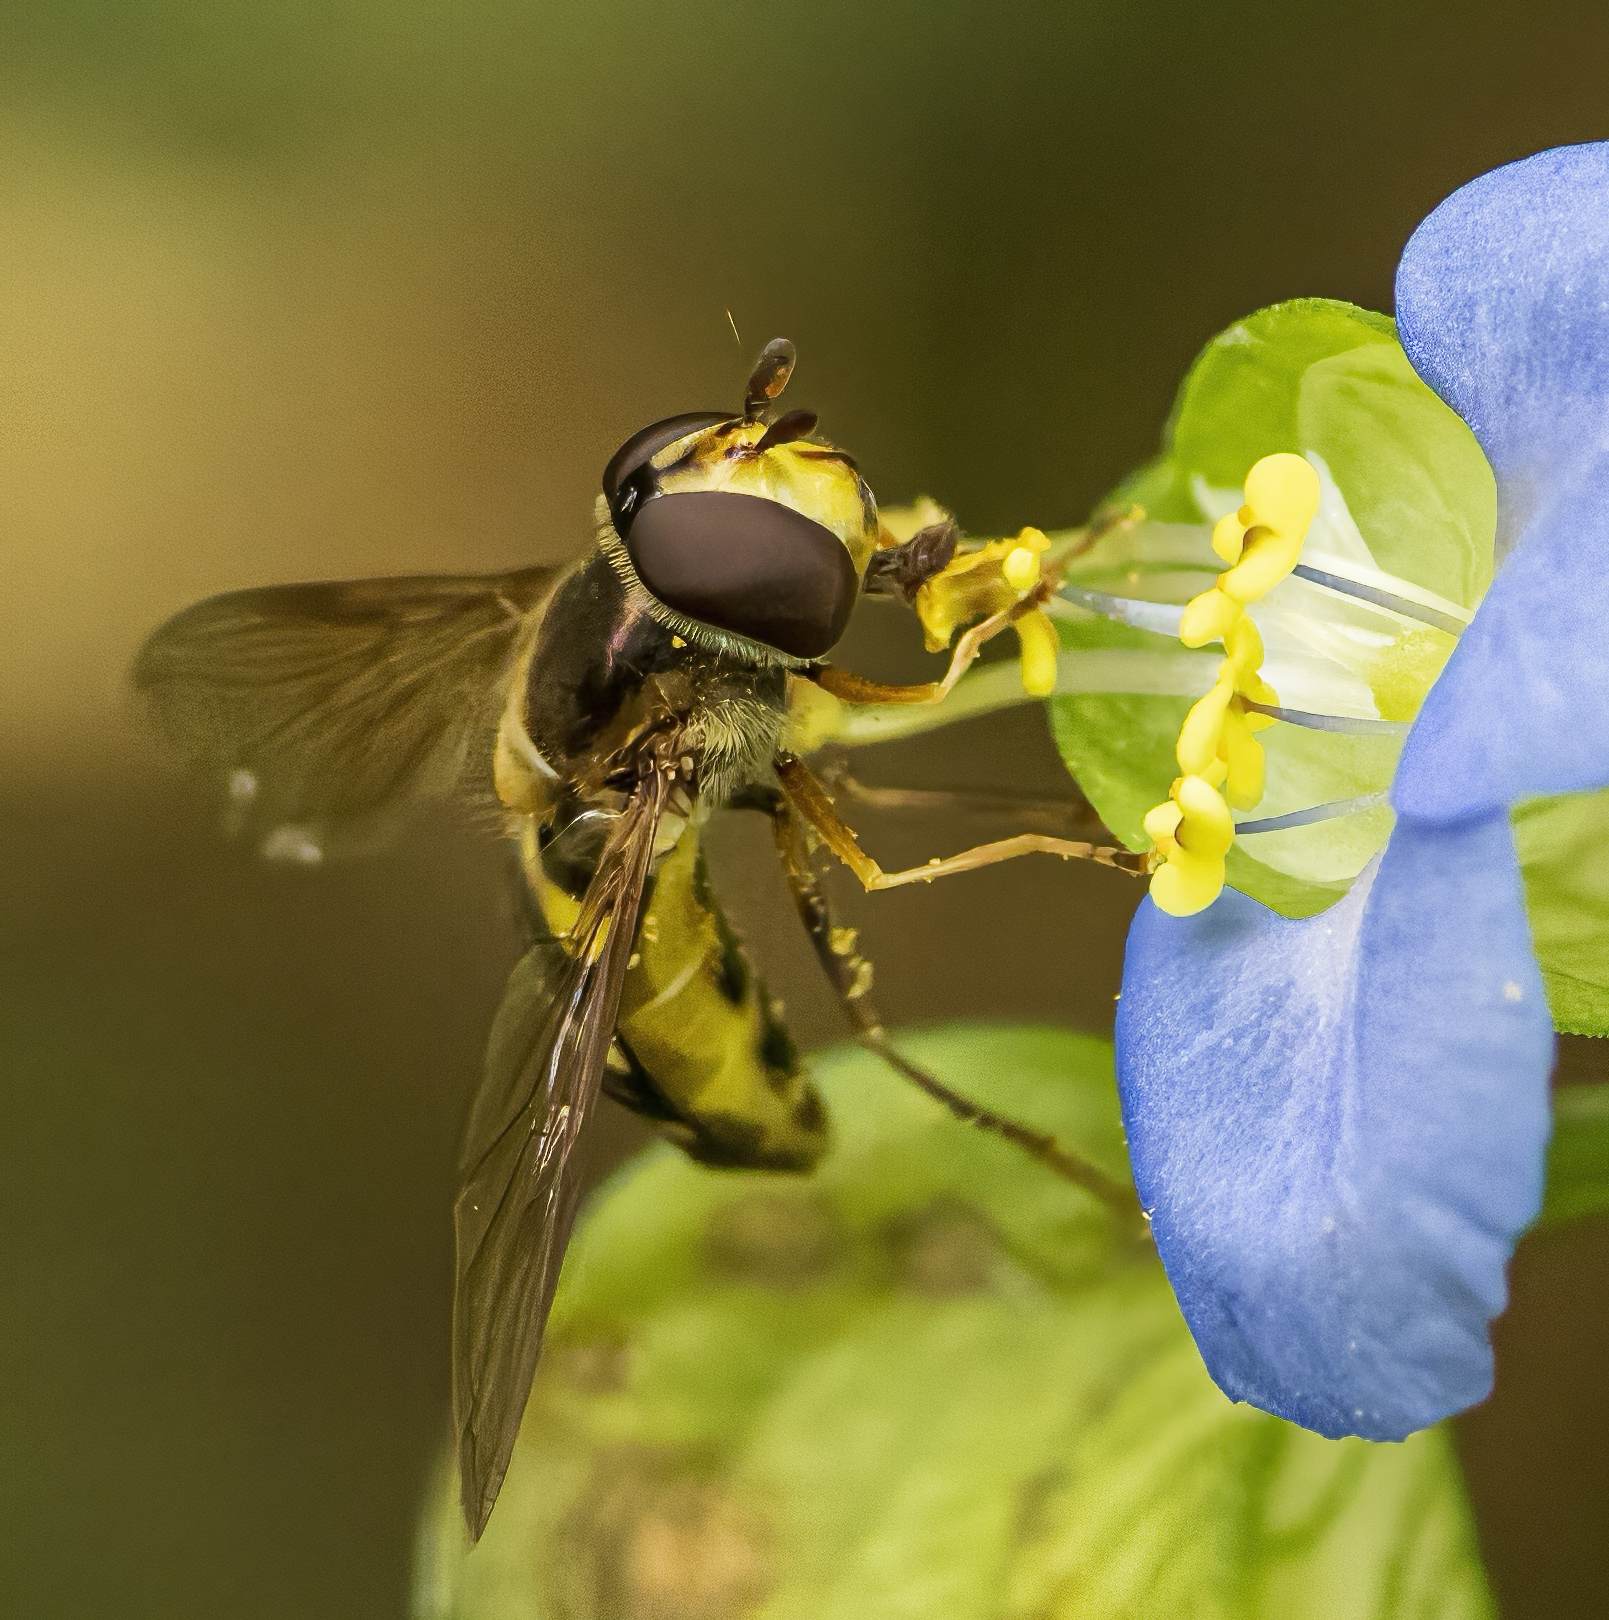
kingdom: Animalia
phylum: Arthropoda
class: Insecta
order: Diptera
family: Syrphidae
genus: Eupeodes
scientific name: Eupeodes
